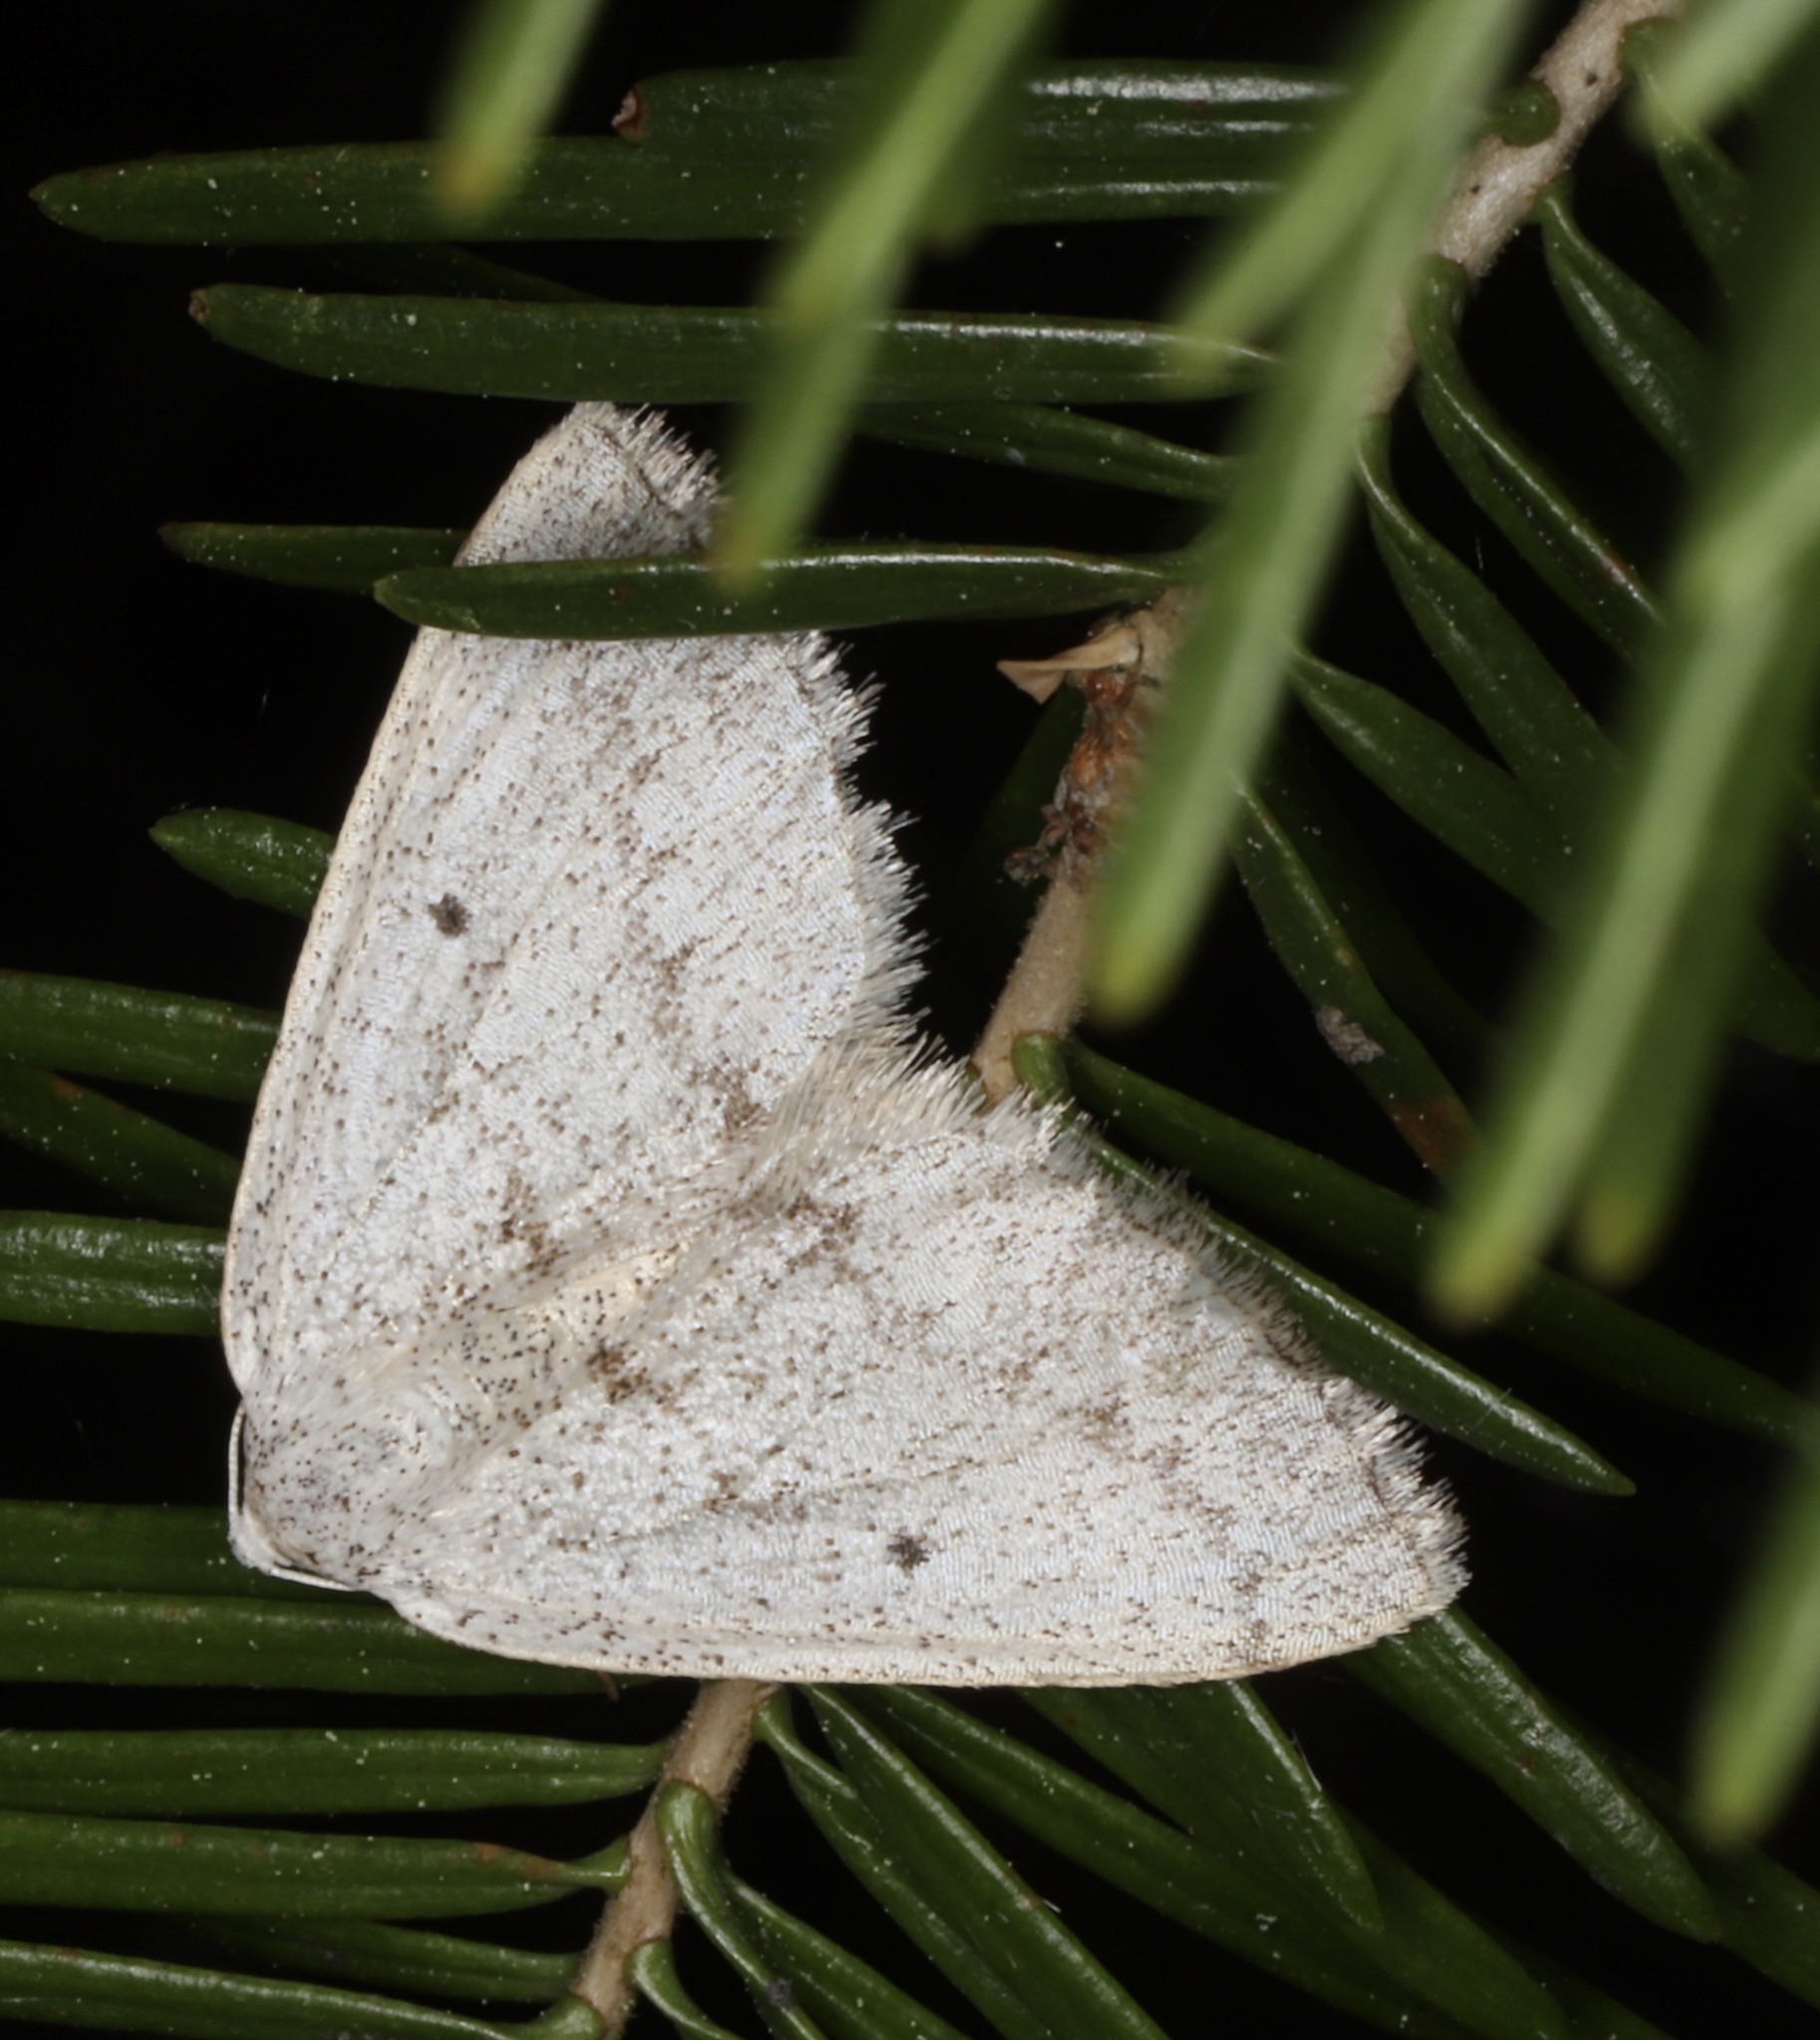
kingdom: Animalia
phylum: Arthropoda
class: Insecta
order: Lepidoptera
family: Geometridae
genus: Lomographa
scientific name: Lomographa glomeraria
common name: Gray spring moth
